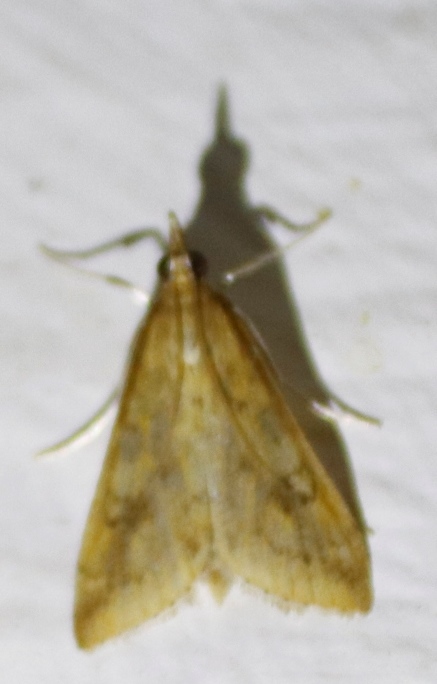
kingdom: Animalia
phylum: Arthropoda
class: Insecta
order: Lepidoptera
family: Crambidae
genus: Udea
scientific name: Udea ferrugalis
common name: Rusty dot
